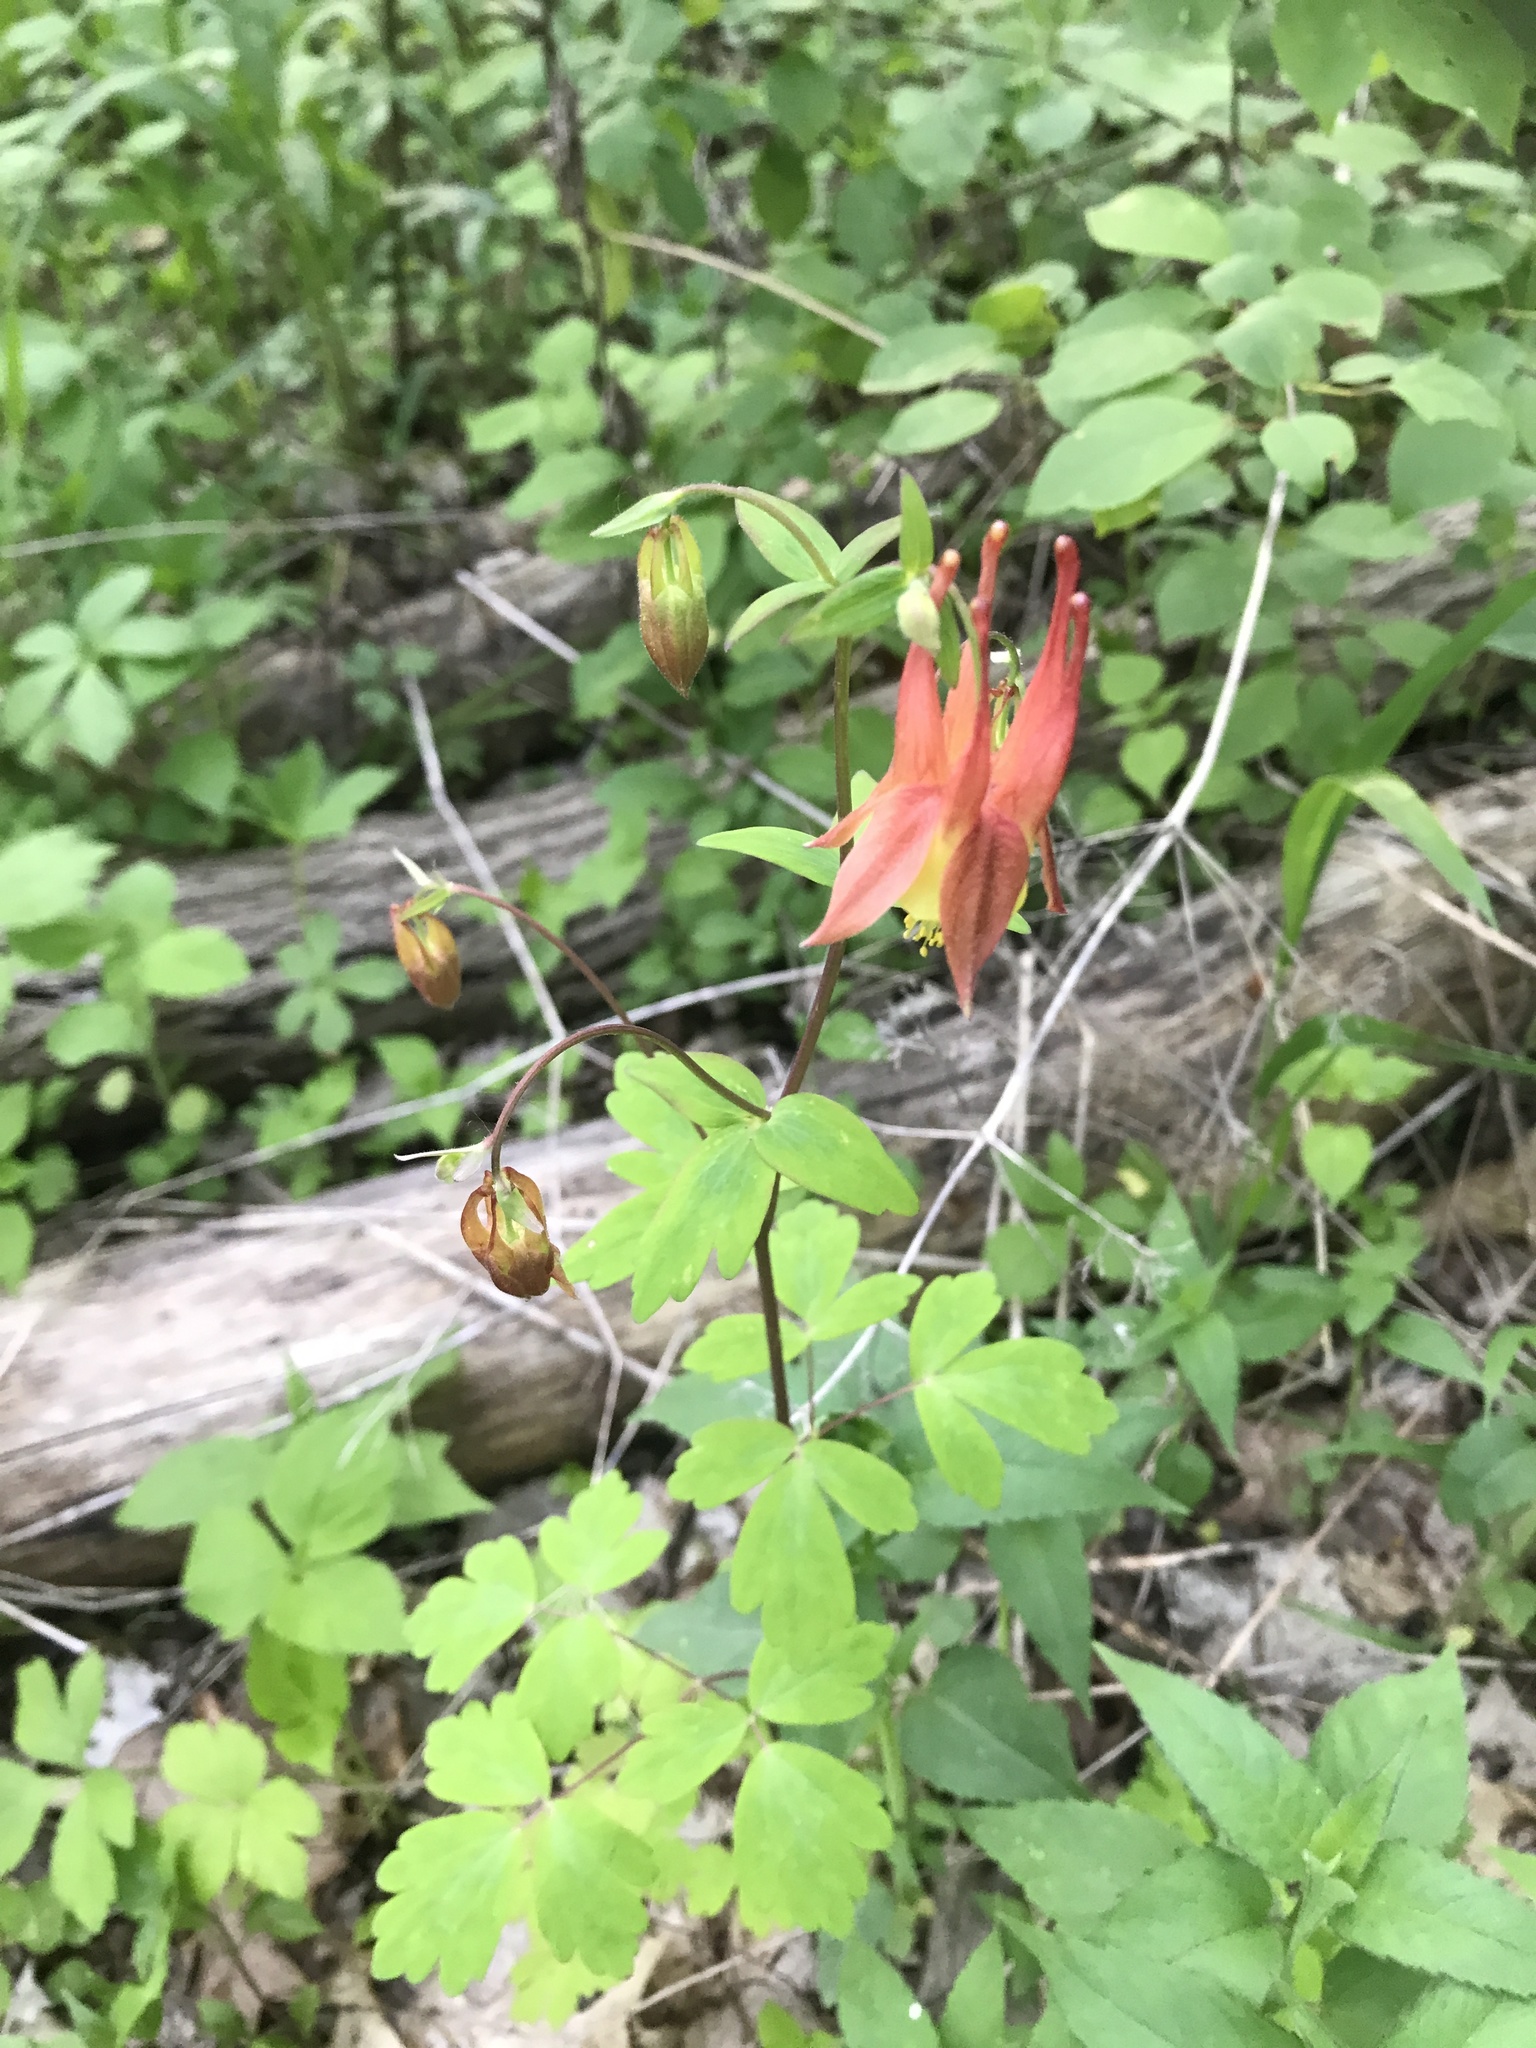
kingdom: Plantae
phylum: Tracheophyta
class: Magnoliopsida
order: Ranunculales
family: Ranunculaceae
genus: Aquilegia
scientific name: Aquilegia canadensis
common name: American columbine
